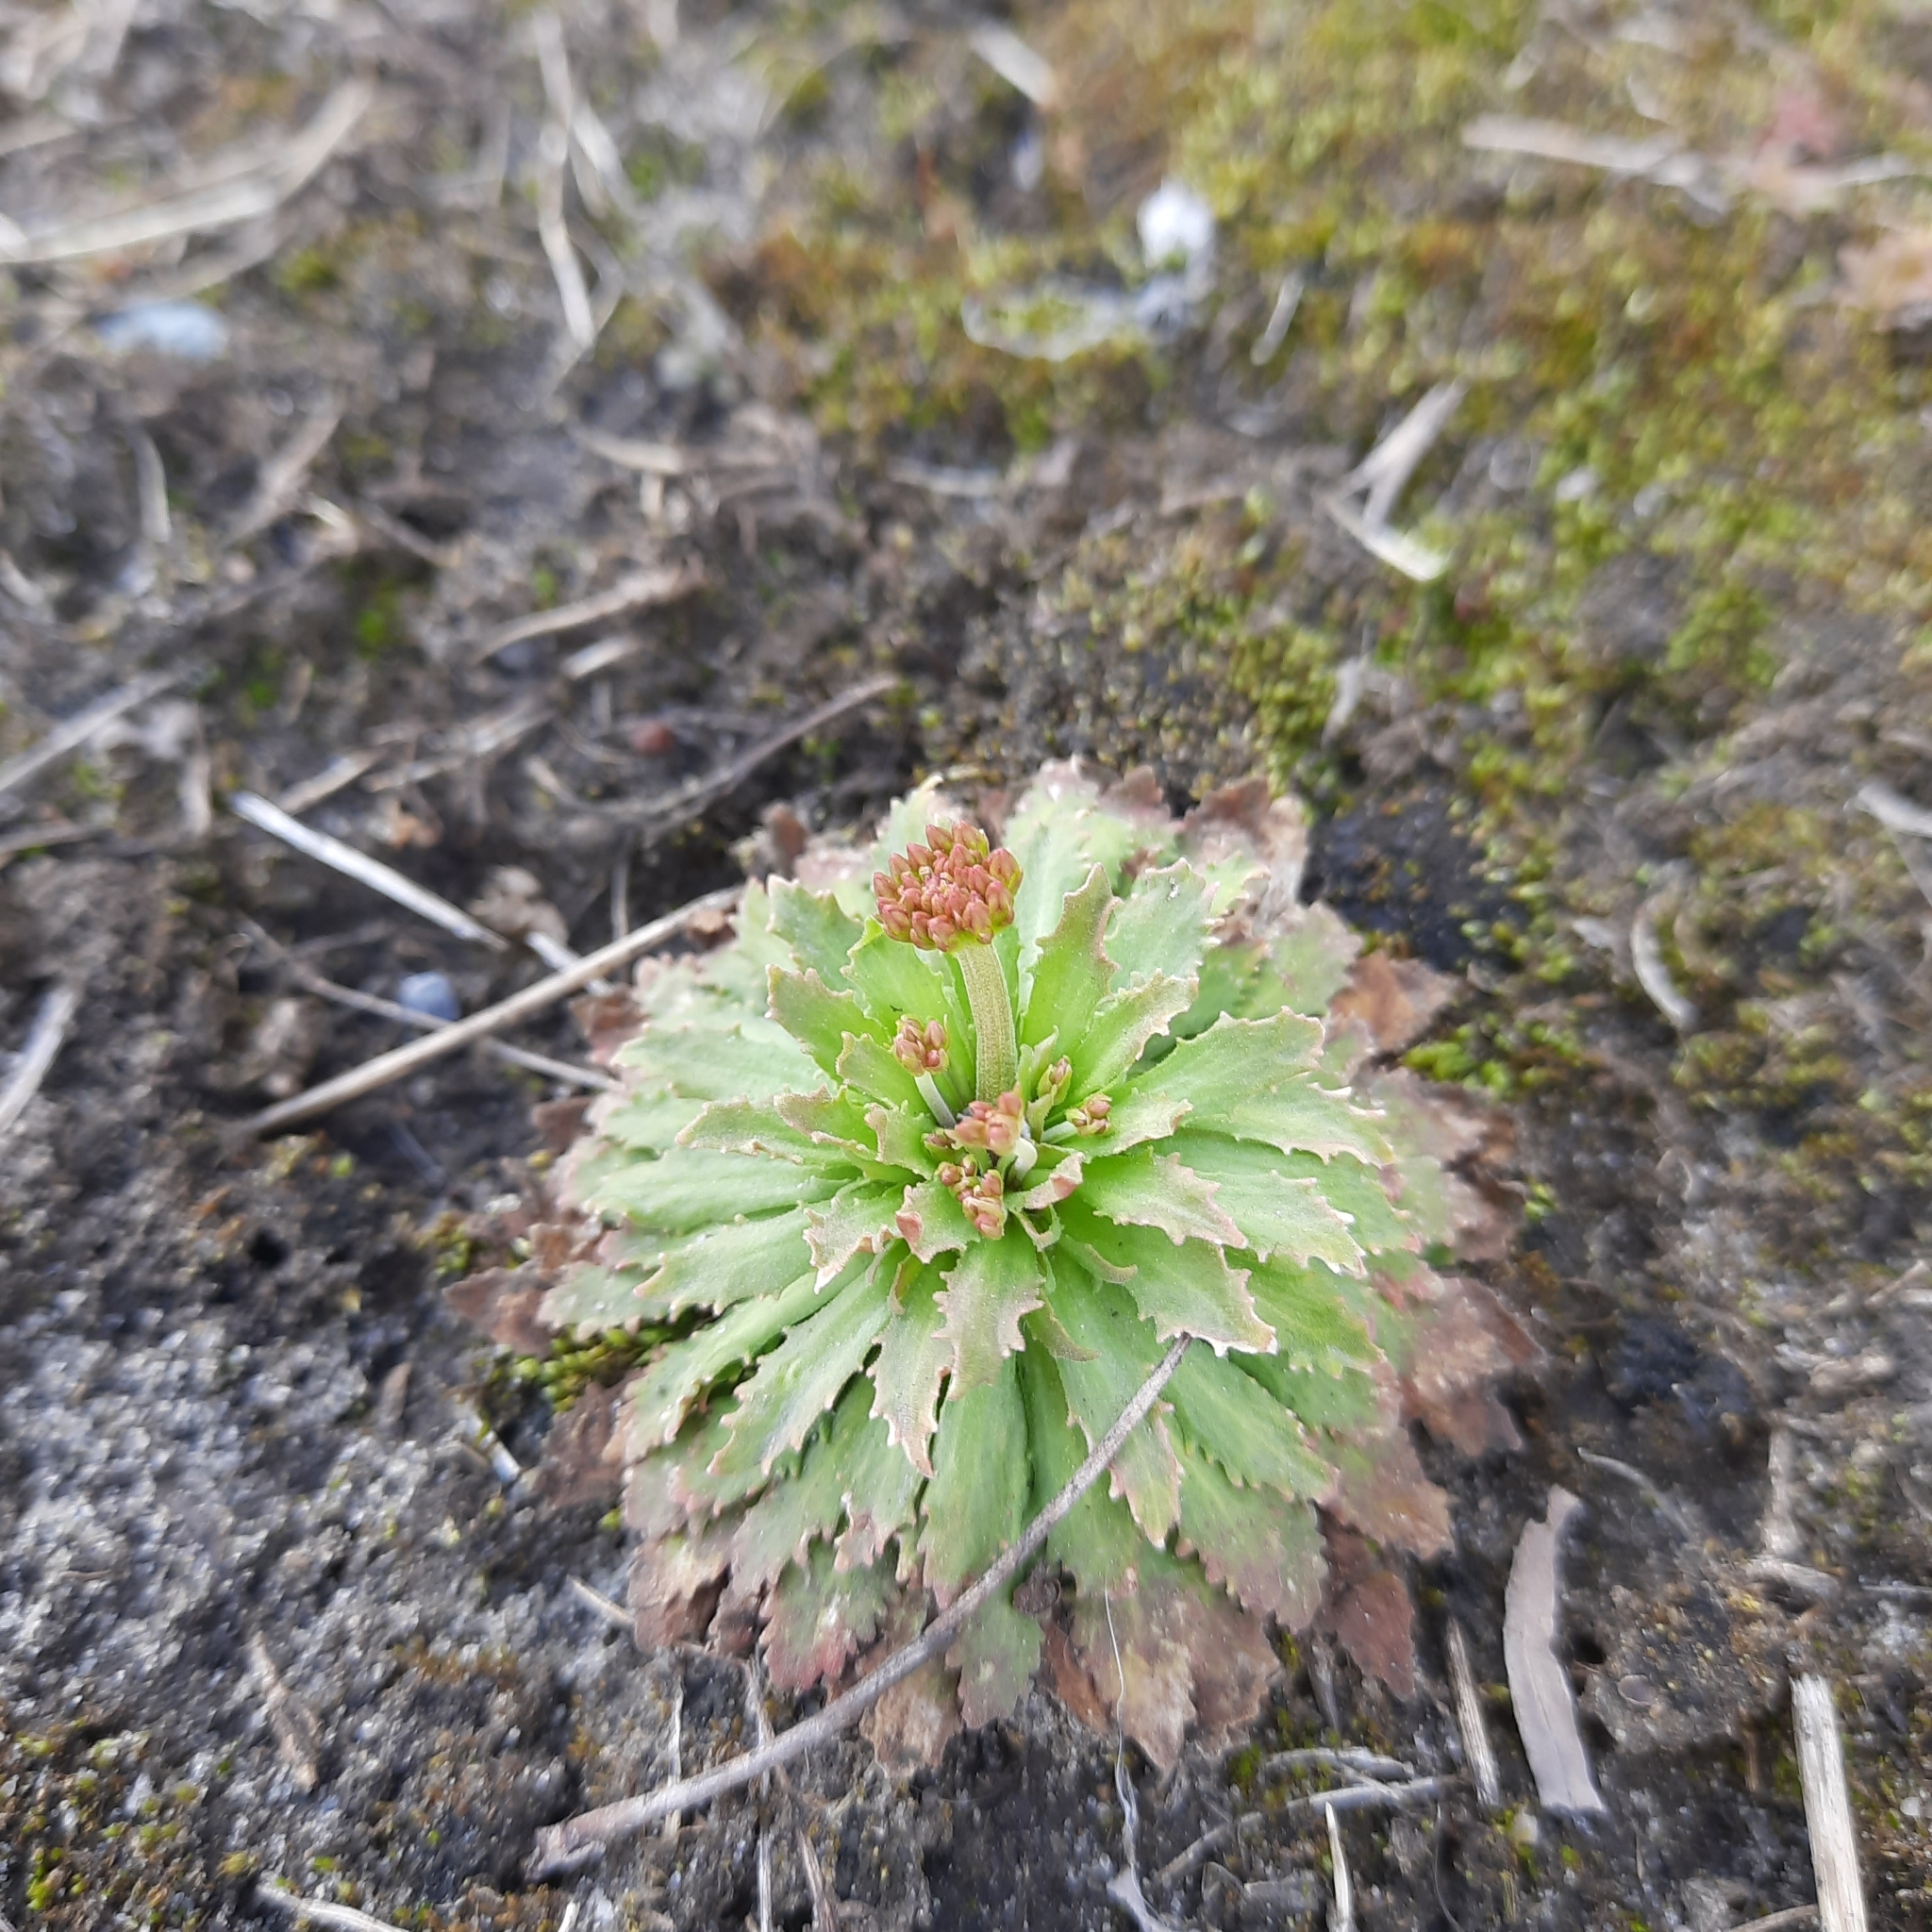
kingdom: Plantae
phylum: Tracheophyta
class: Magnoliopsida
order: Ericales
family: Primulaceae
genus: Androsace
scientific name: Androsace septentrionalis
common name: Hairy northern fairy-candelabra
